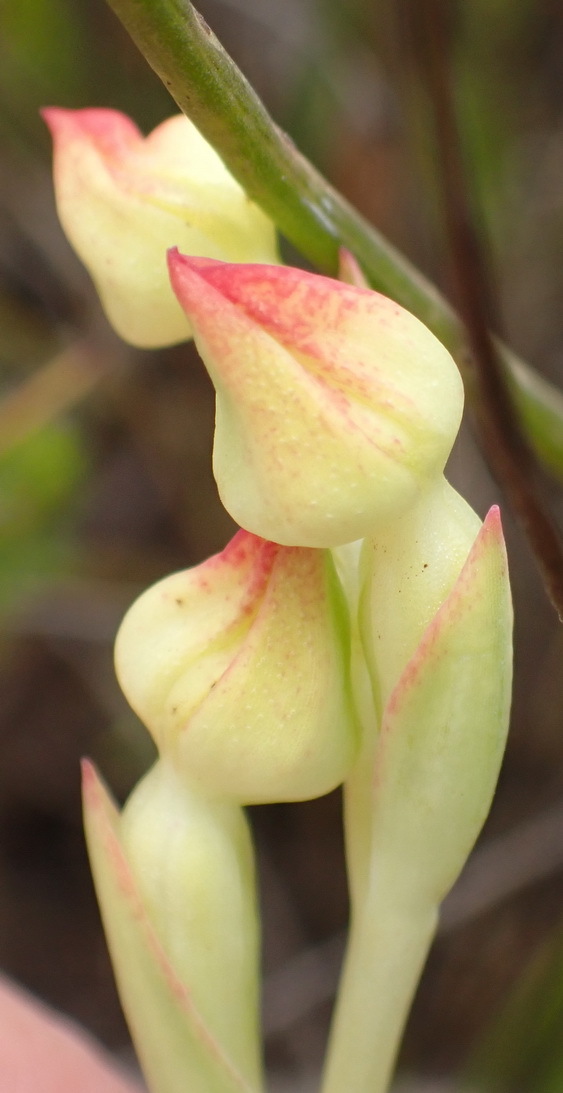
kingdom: Plantae
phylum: Tracheophyta
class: Liliopsida
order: Asparagales
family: Orchidaceae
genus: Pterygodium
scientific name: Pterygodium cleistogamum
